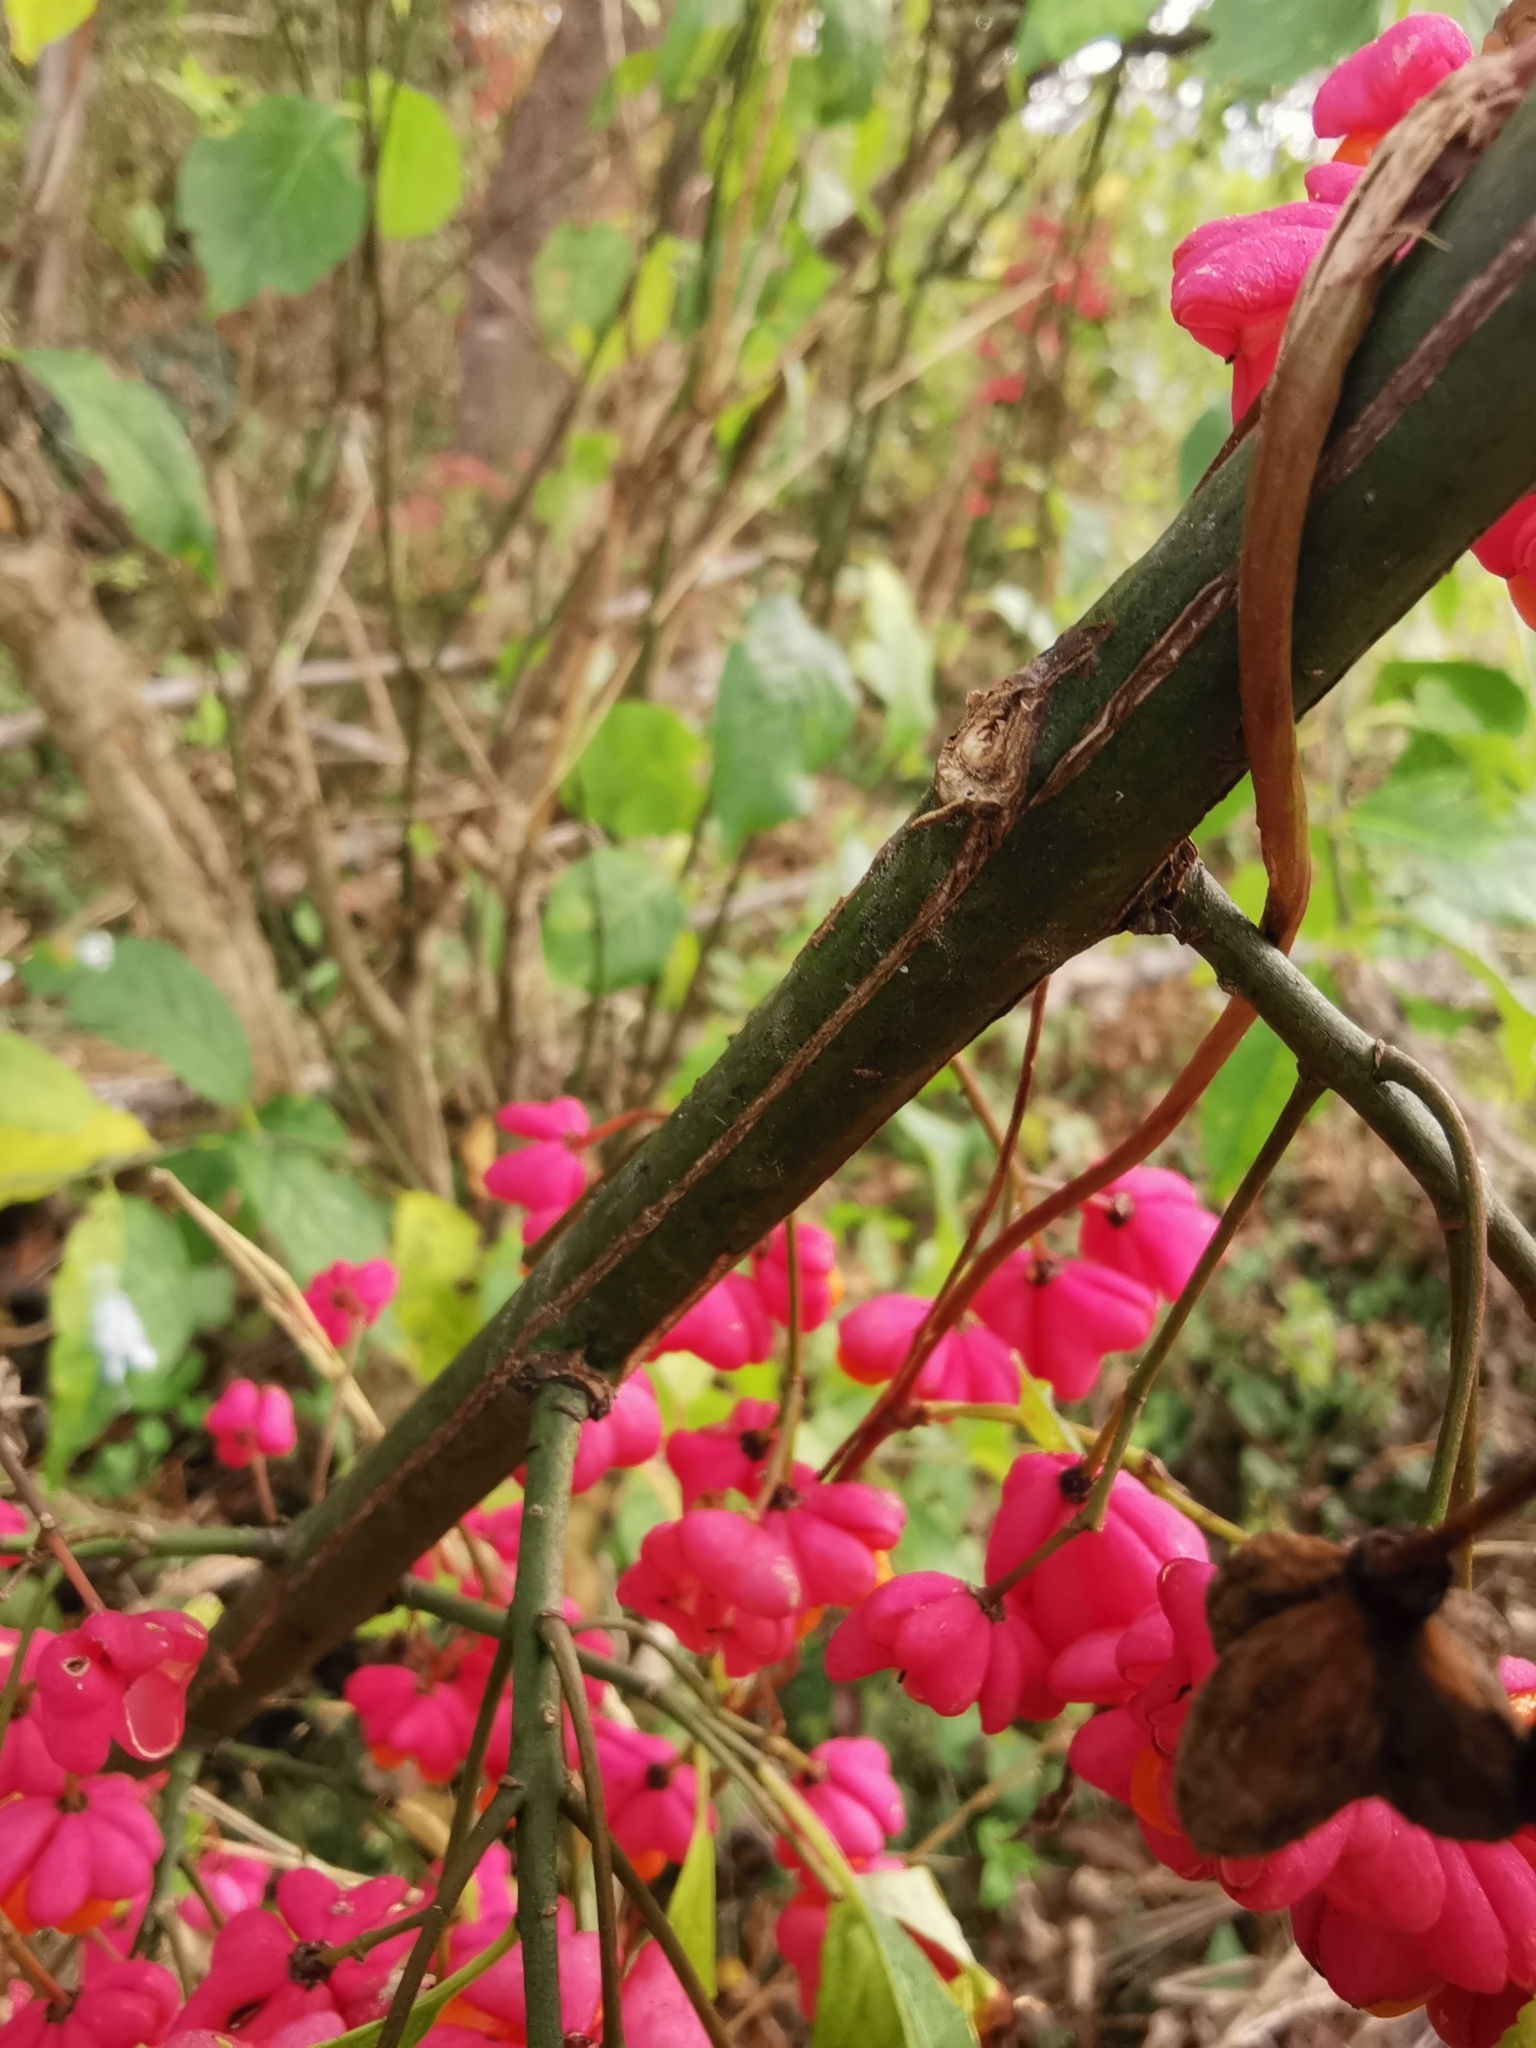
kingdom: Plantae
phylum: Tracheophyta
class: Magnoliopsida
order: Celastrales
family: Celastraceae
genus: Euonymus
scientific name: Euonymus europaeus
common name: Spindle
